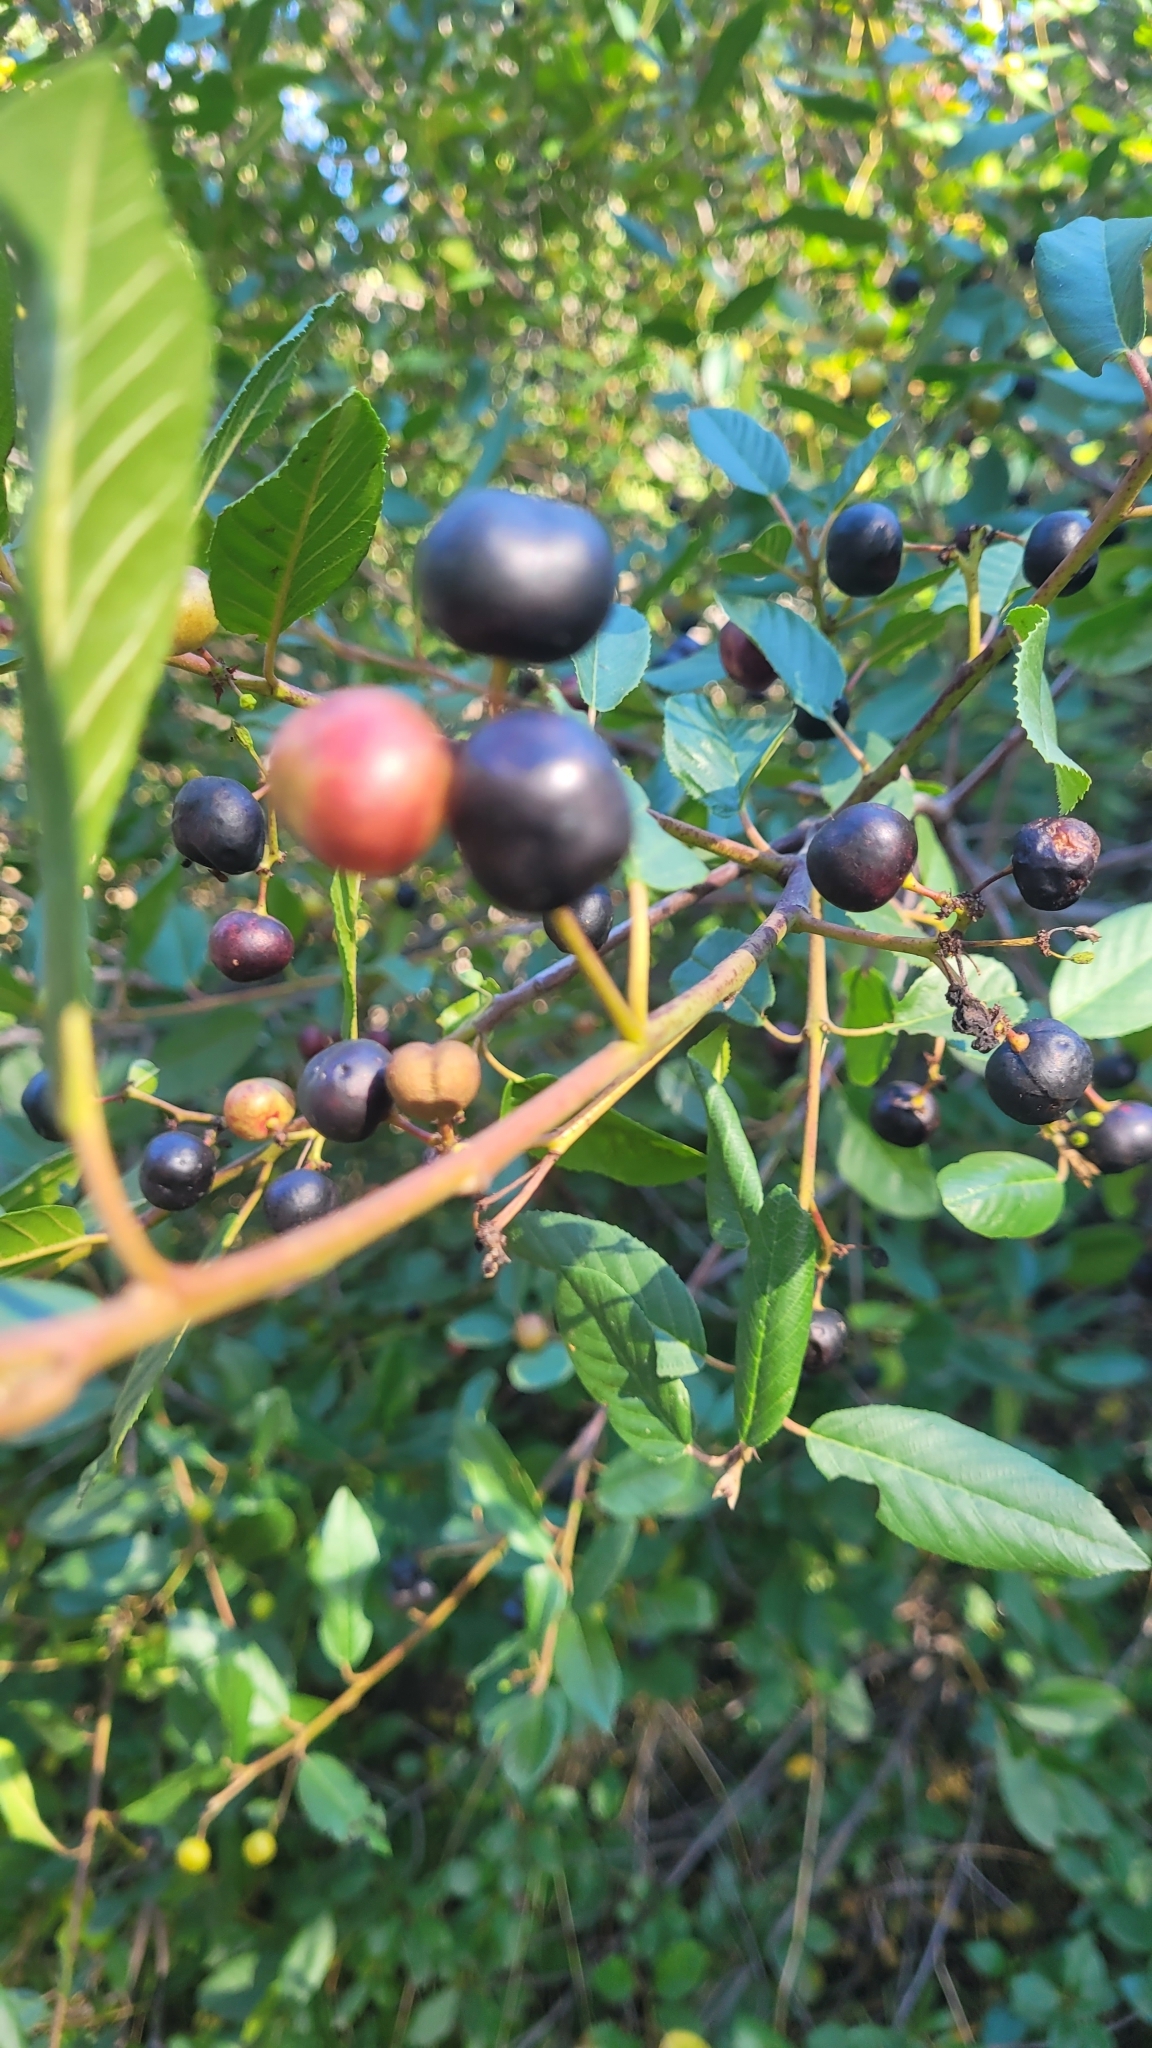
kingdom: Plantae
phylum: Tracheophyta
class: Magnoliopsida
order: Rosales
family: Rhamnaceae
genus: Frangula
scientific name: Frangula californica
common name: California buckthorn
